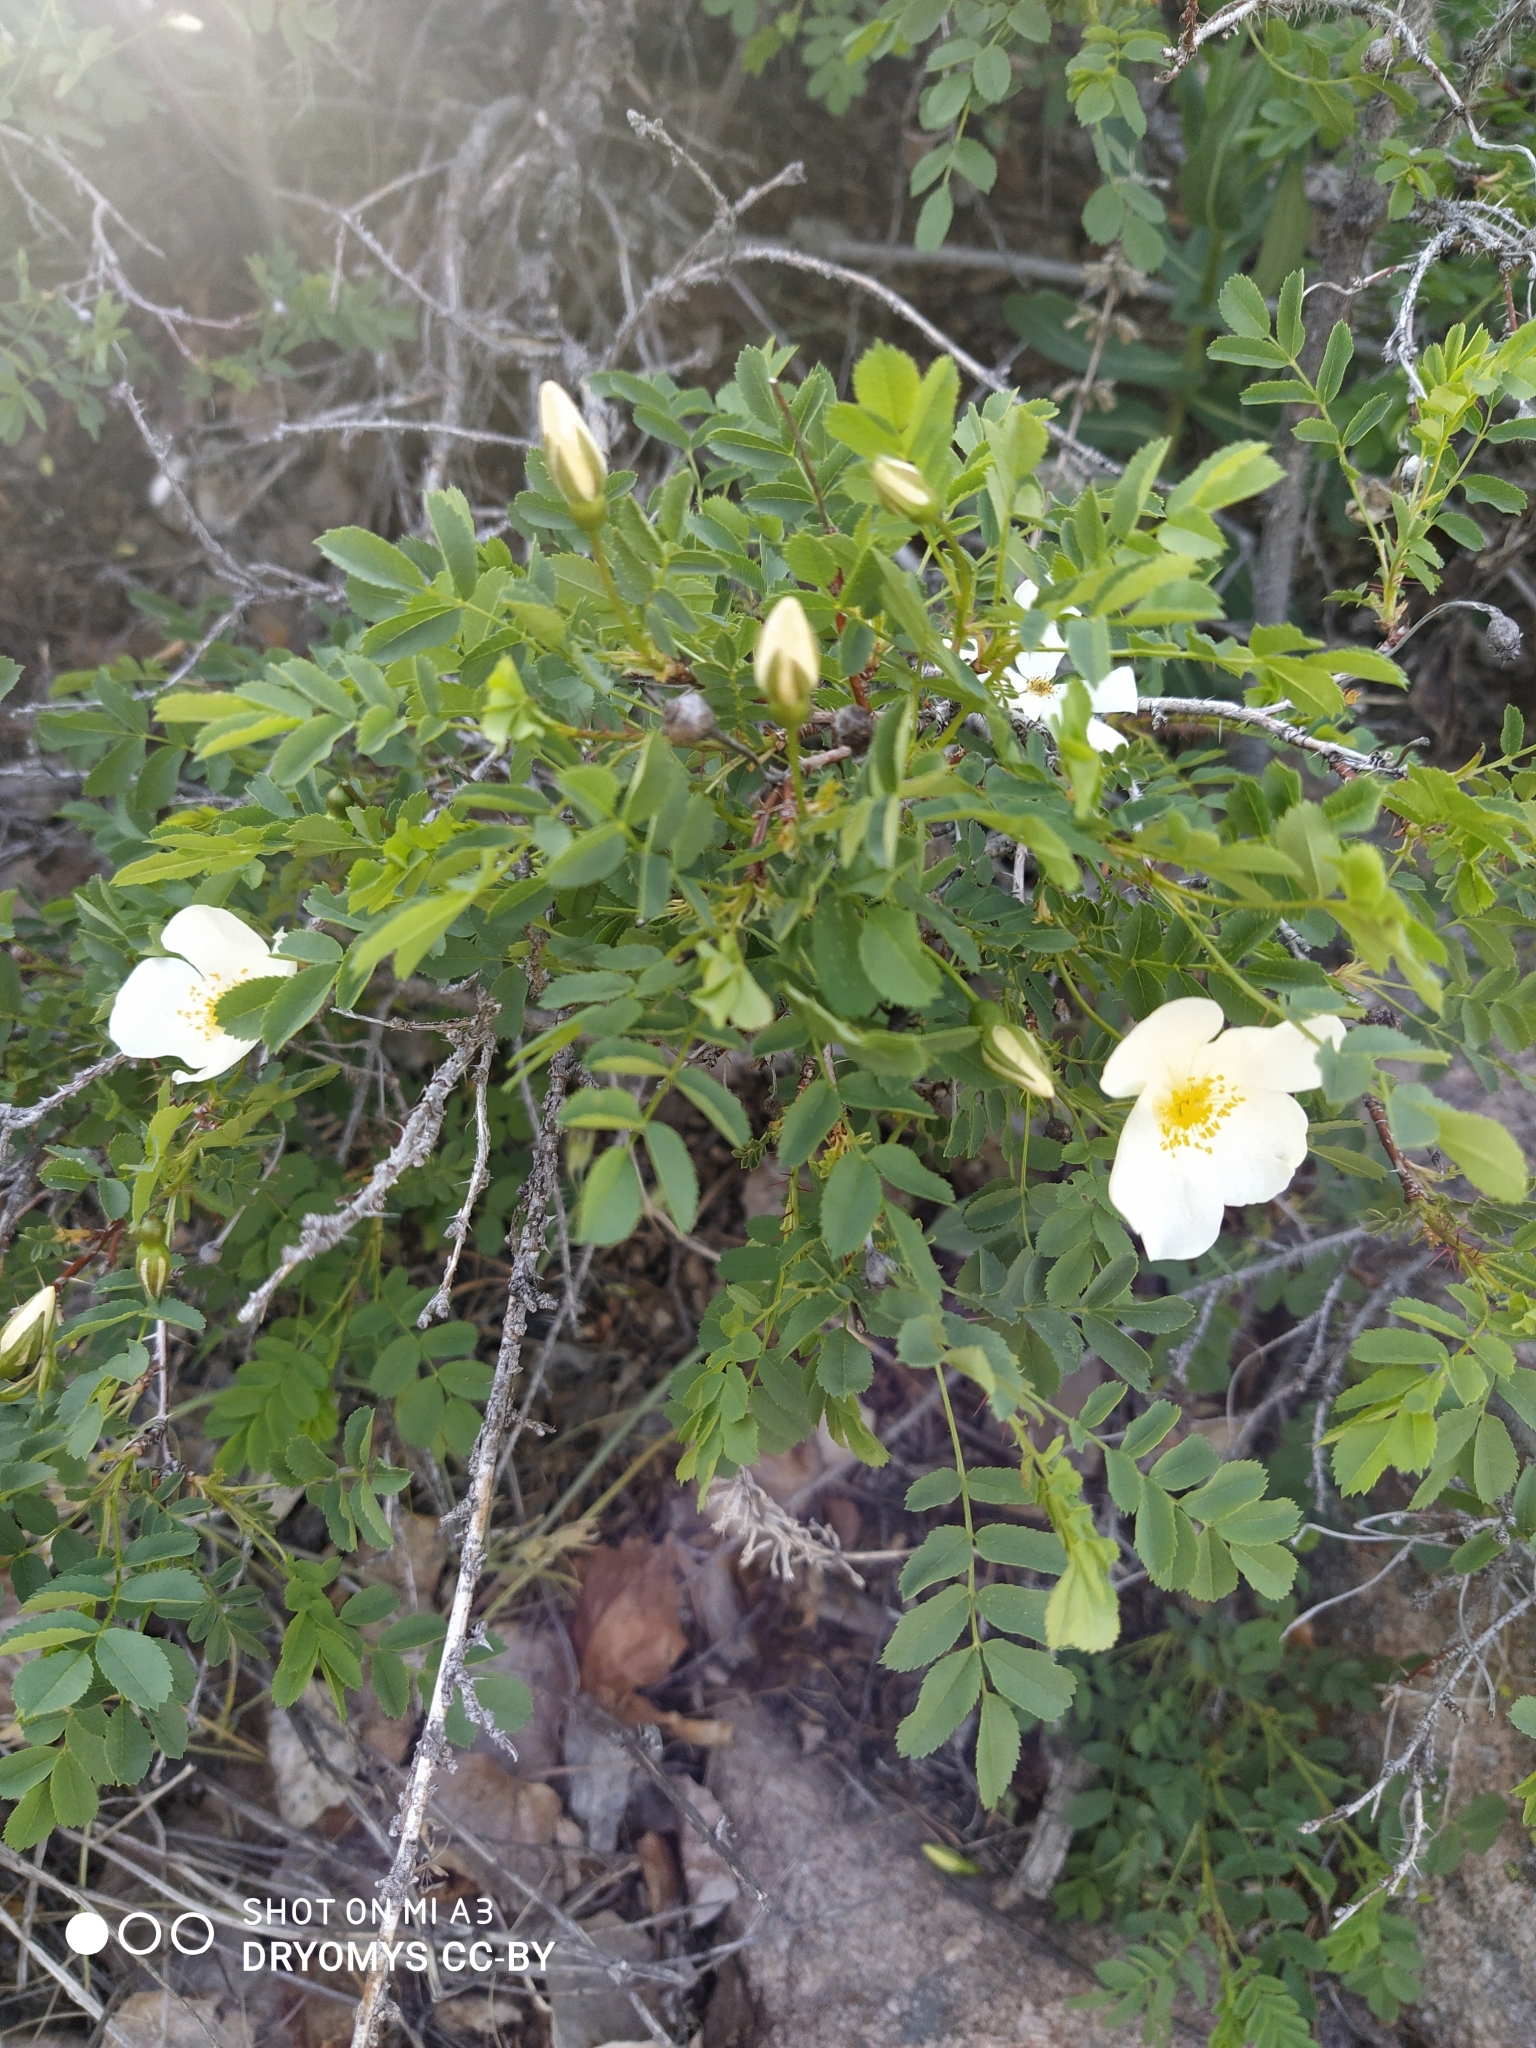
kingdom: Plantae
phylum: Tracheophyta
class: Magnoliopsida
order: Rosales
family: Rosaceae
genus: Rosa
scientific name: Rosa spinosissima
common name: Burnet rose
